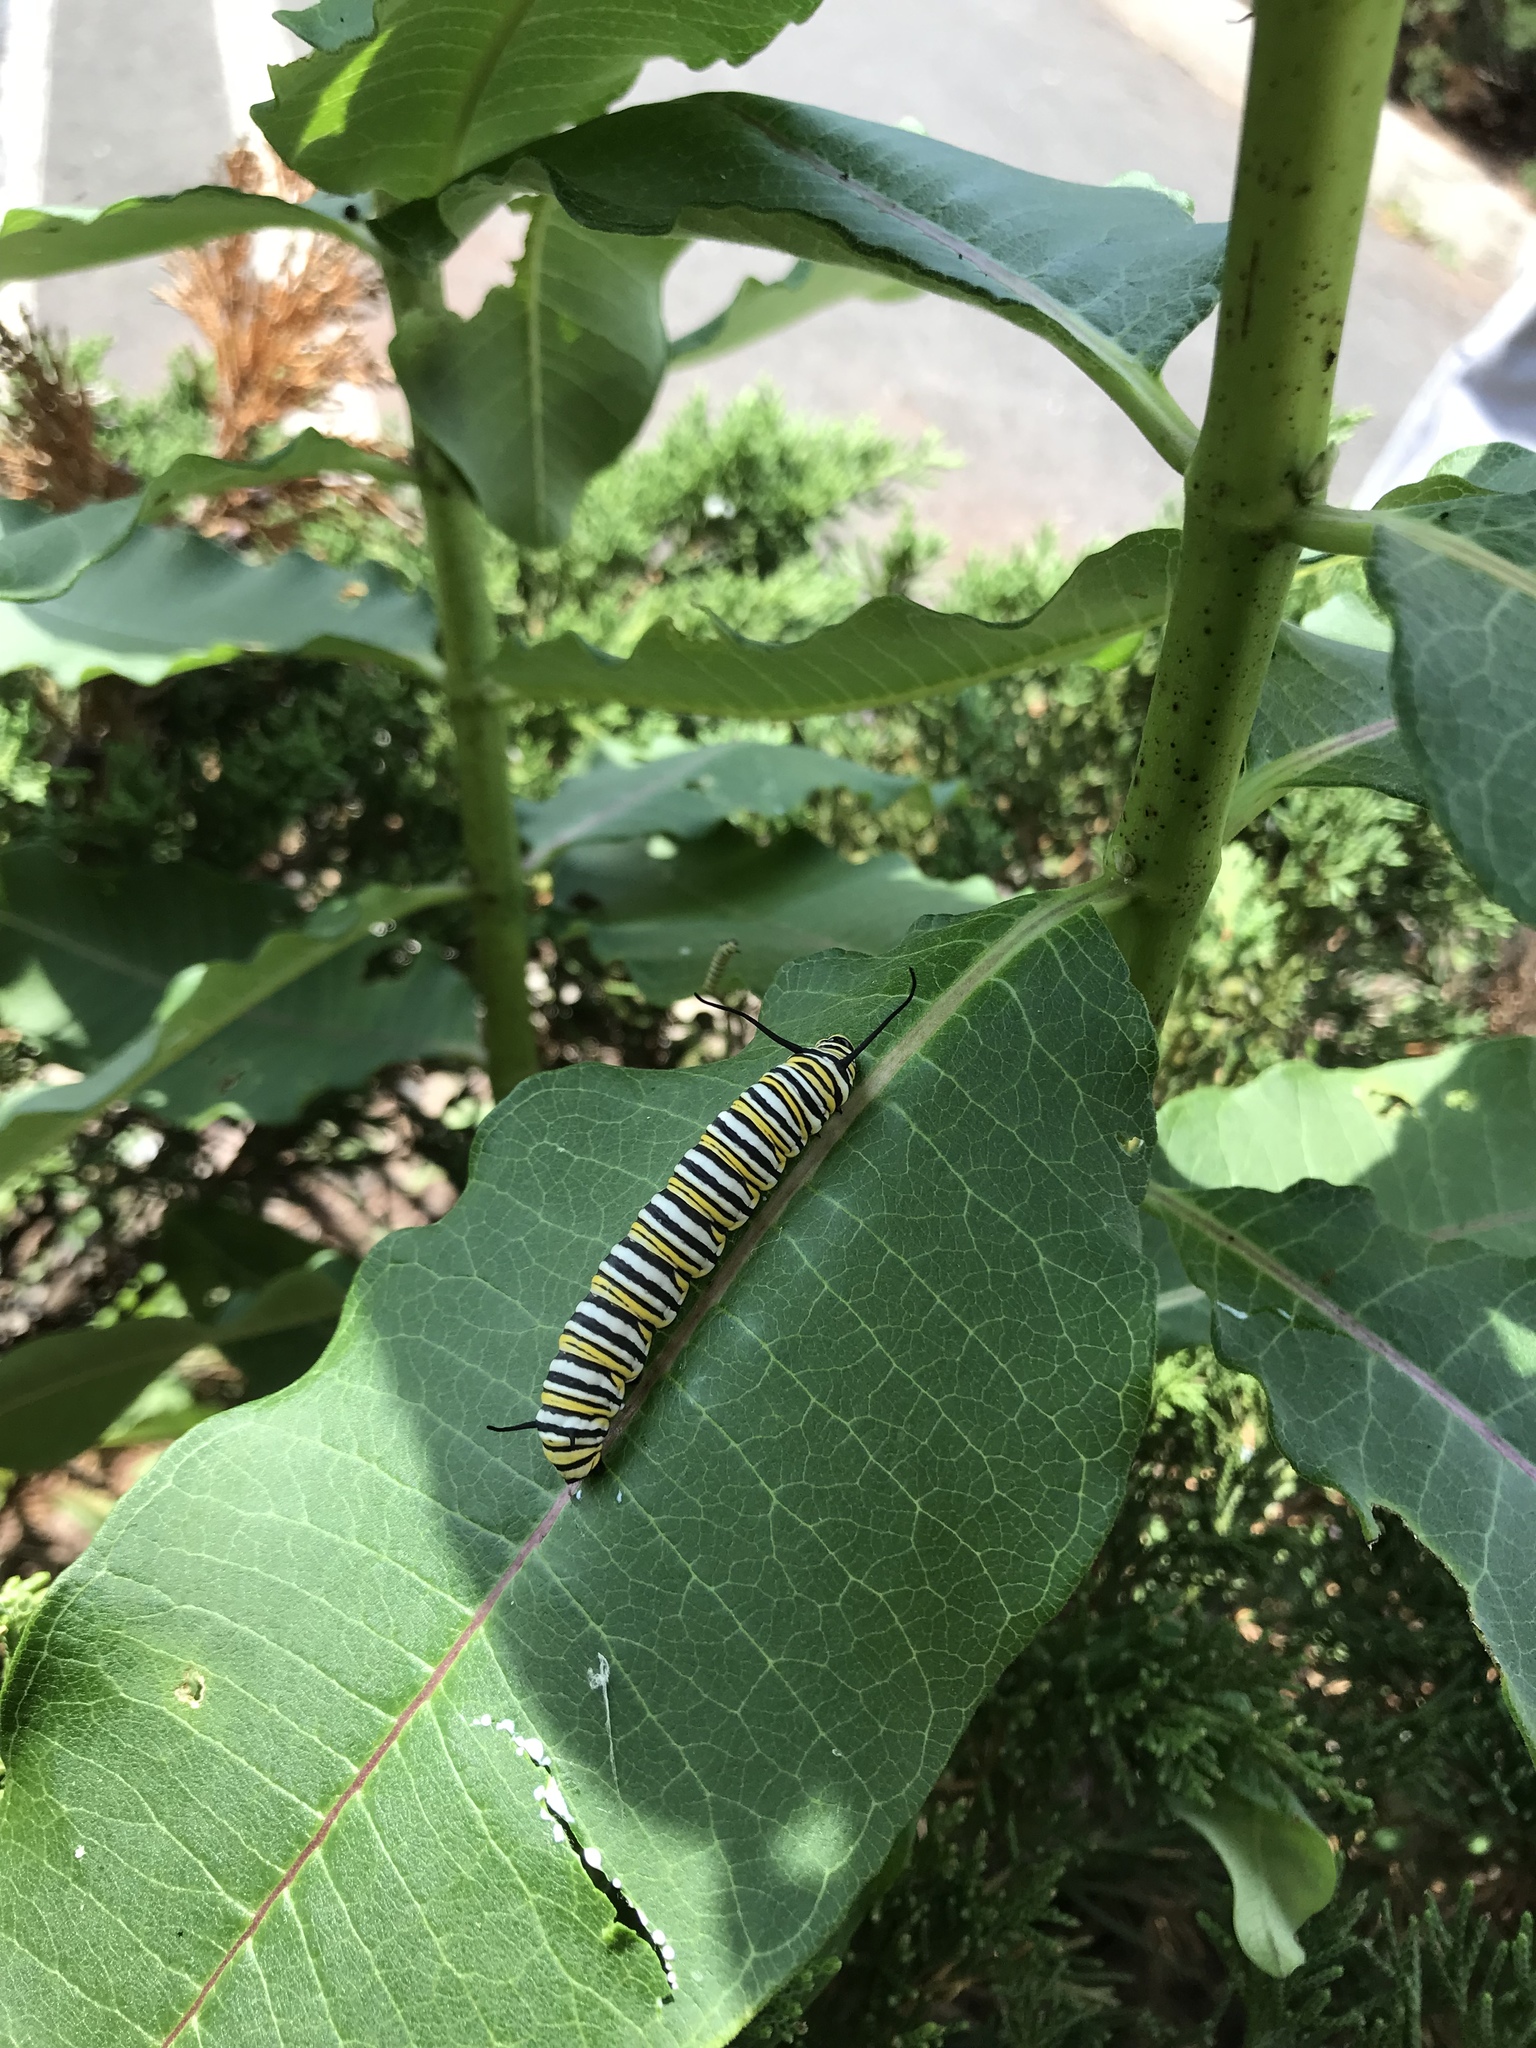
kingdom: Animalia
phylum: Arthropoda
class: Insecta
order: Lepidoptera
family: Nymphalidae
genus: Danaus
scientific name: Danaus plexippus
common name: Monarch
